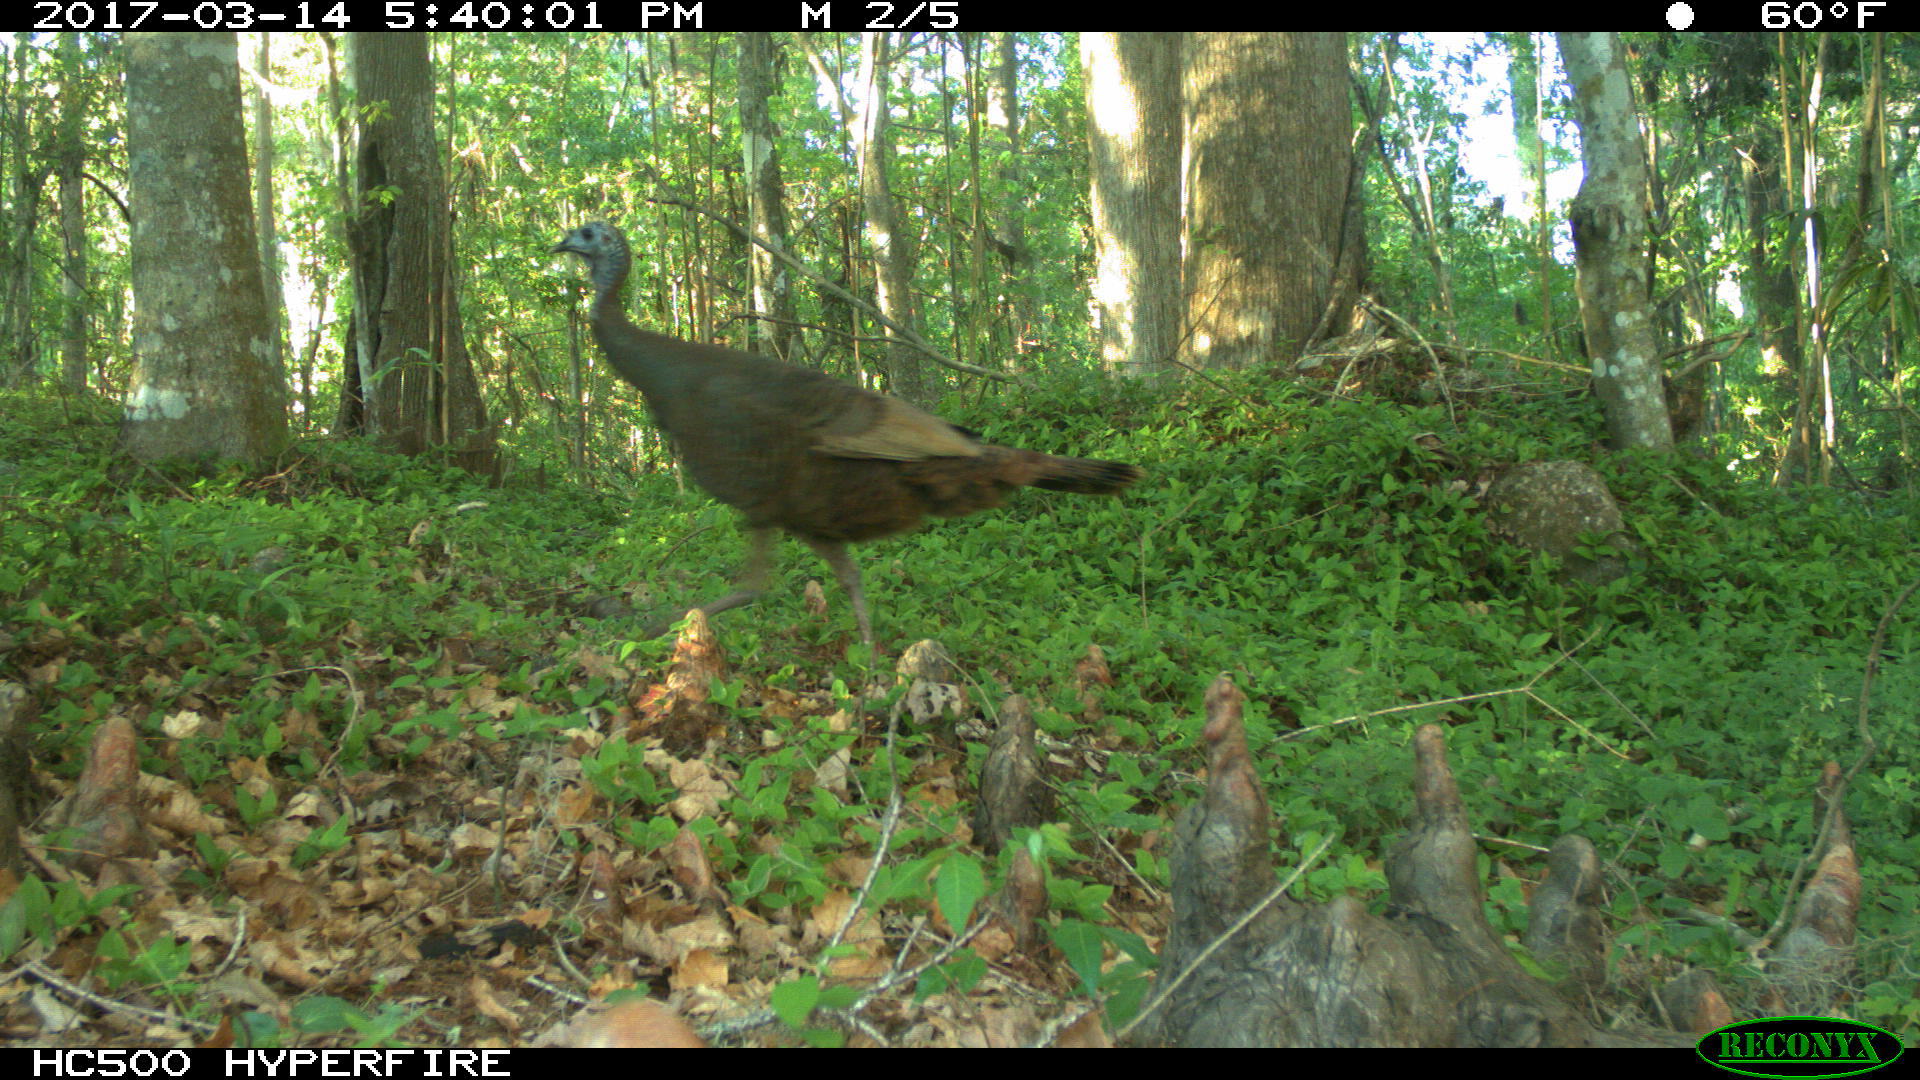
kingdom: Animalia
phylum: Chordata
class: Aves
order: Galliformes
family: Phasianidae
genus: Meleagris
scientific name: Meleagris gallopavo
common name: Wild turkey
